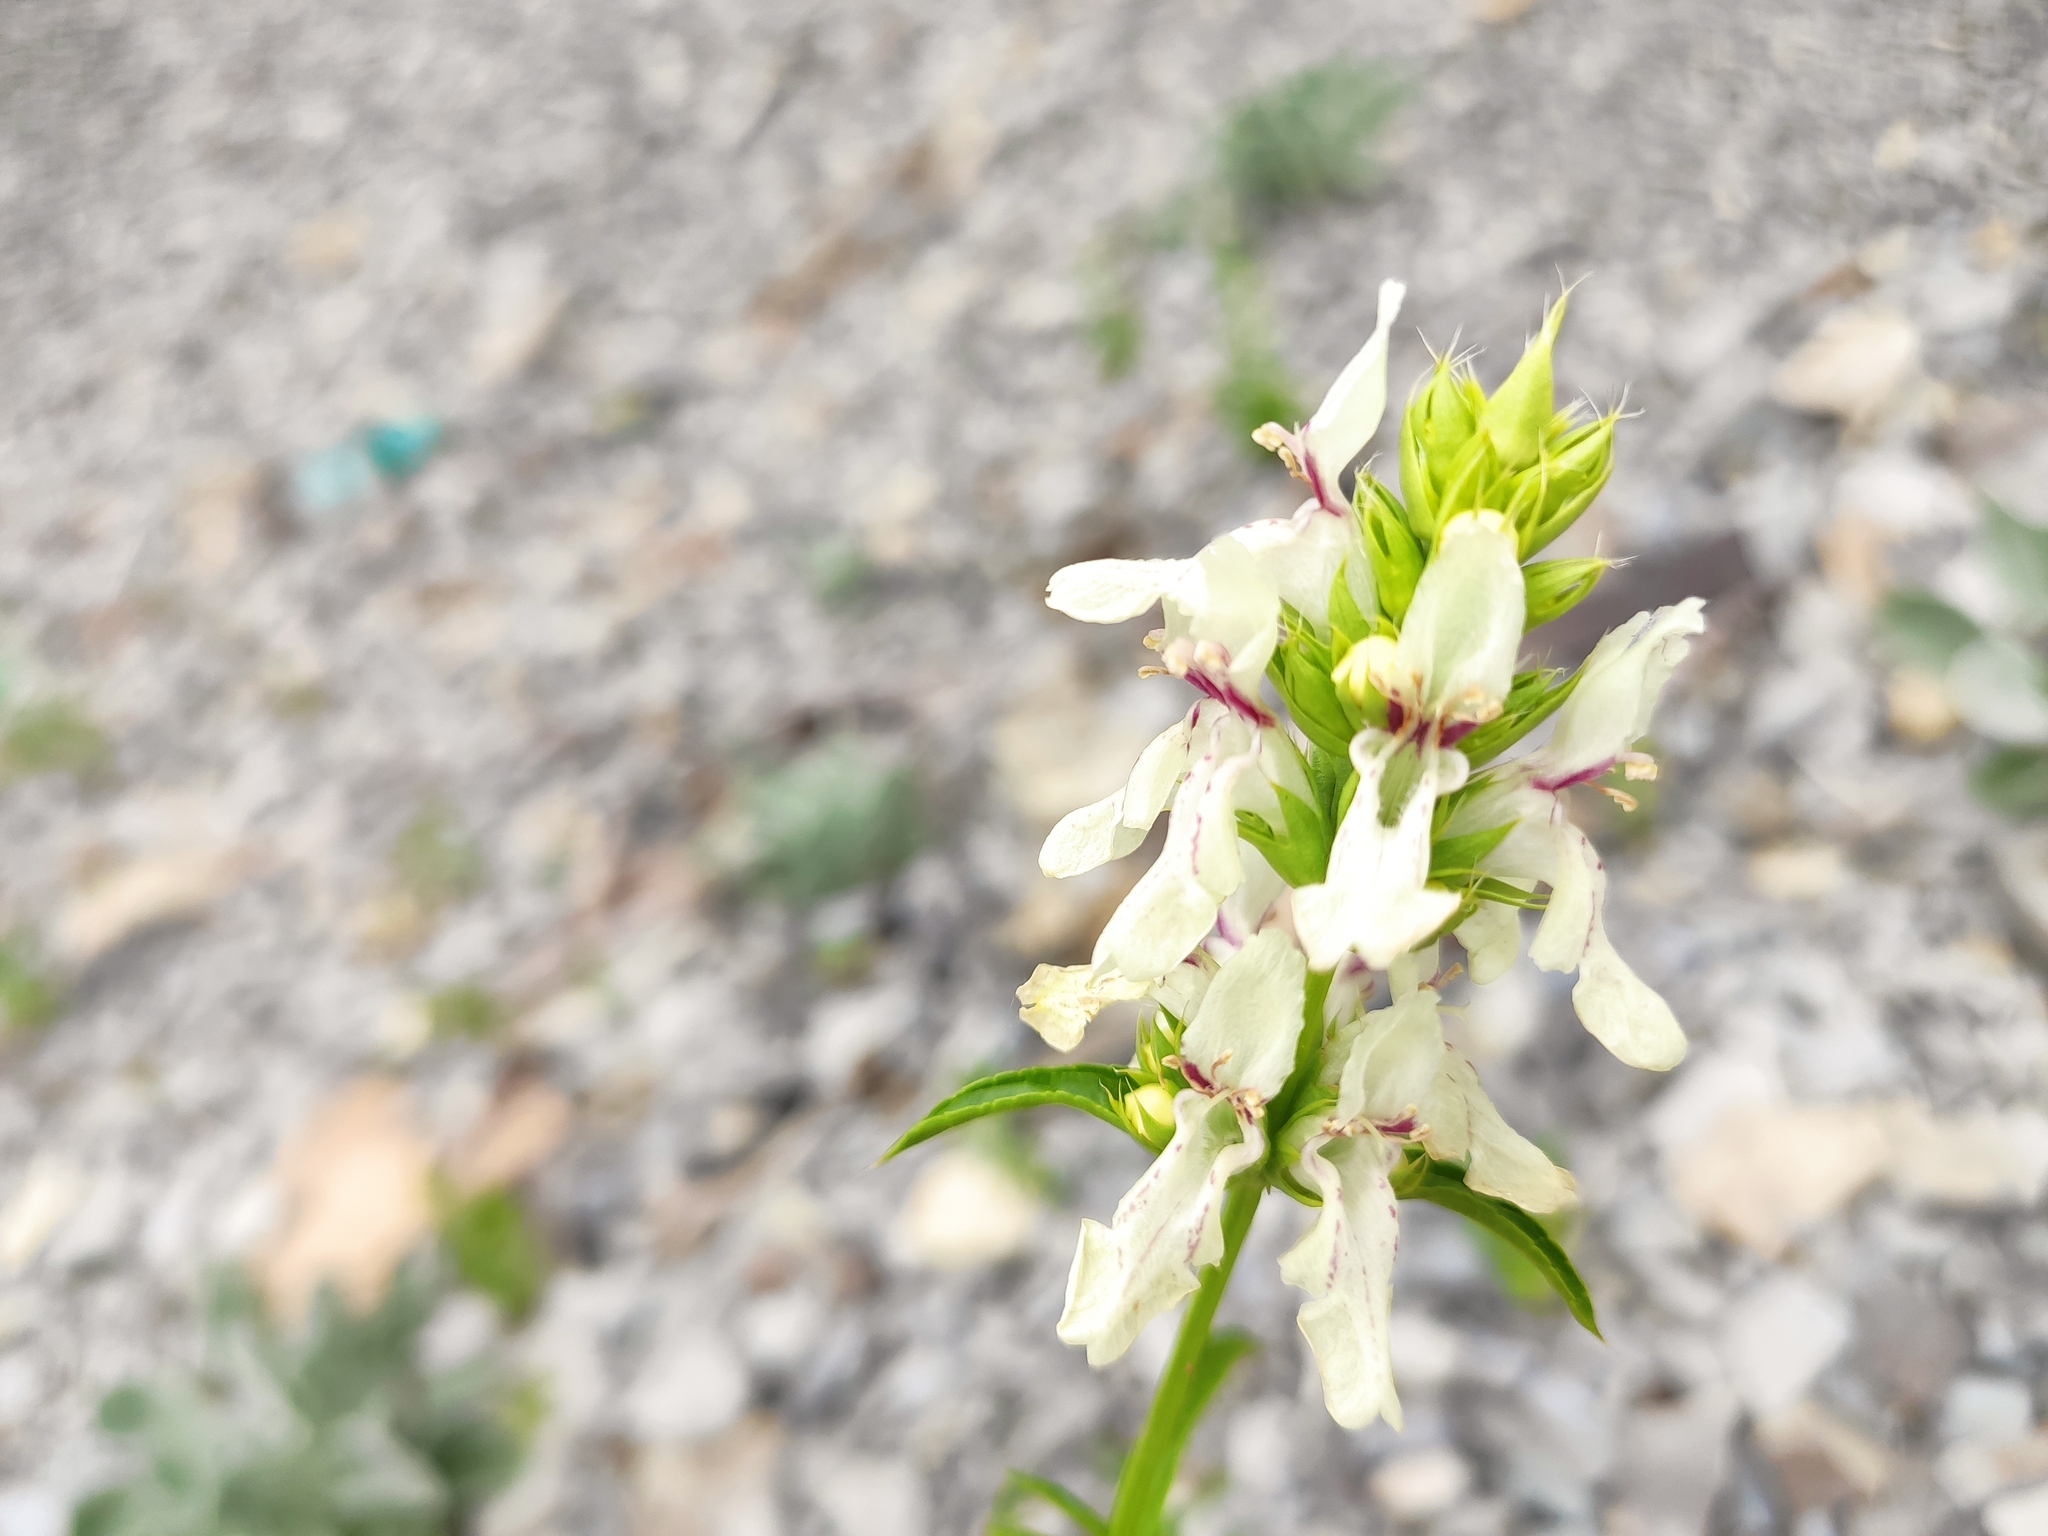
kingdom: Plantae
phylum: Tracheophyta
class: Magnoliopsida
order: Lamiales
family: Lamiaceae
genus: Stachys
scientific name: Stachys atherocalyx
